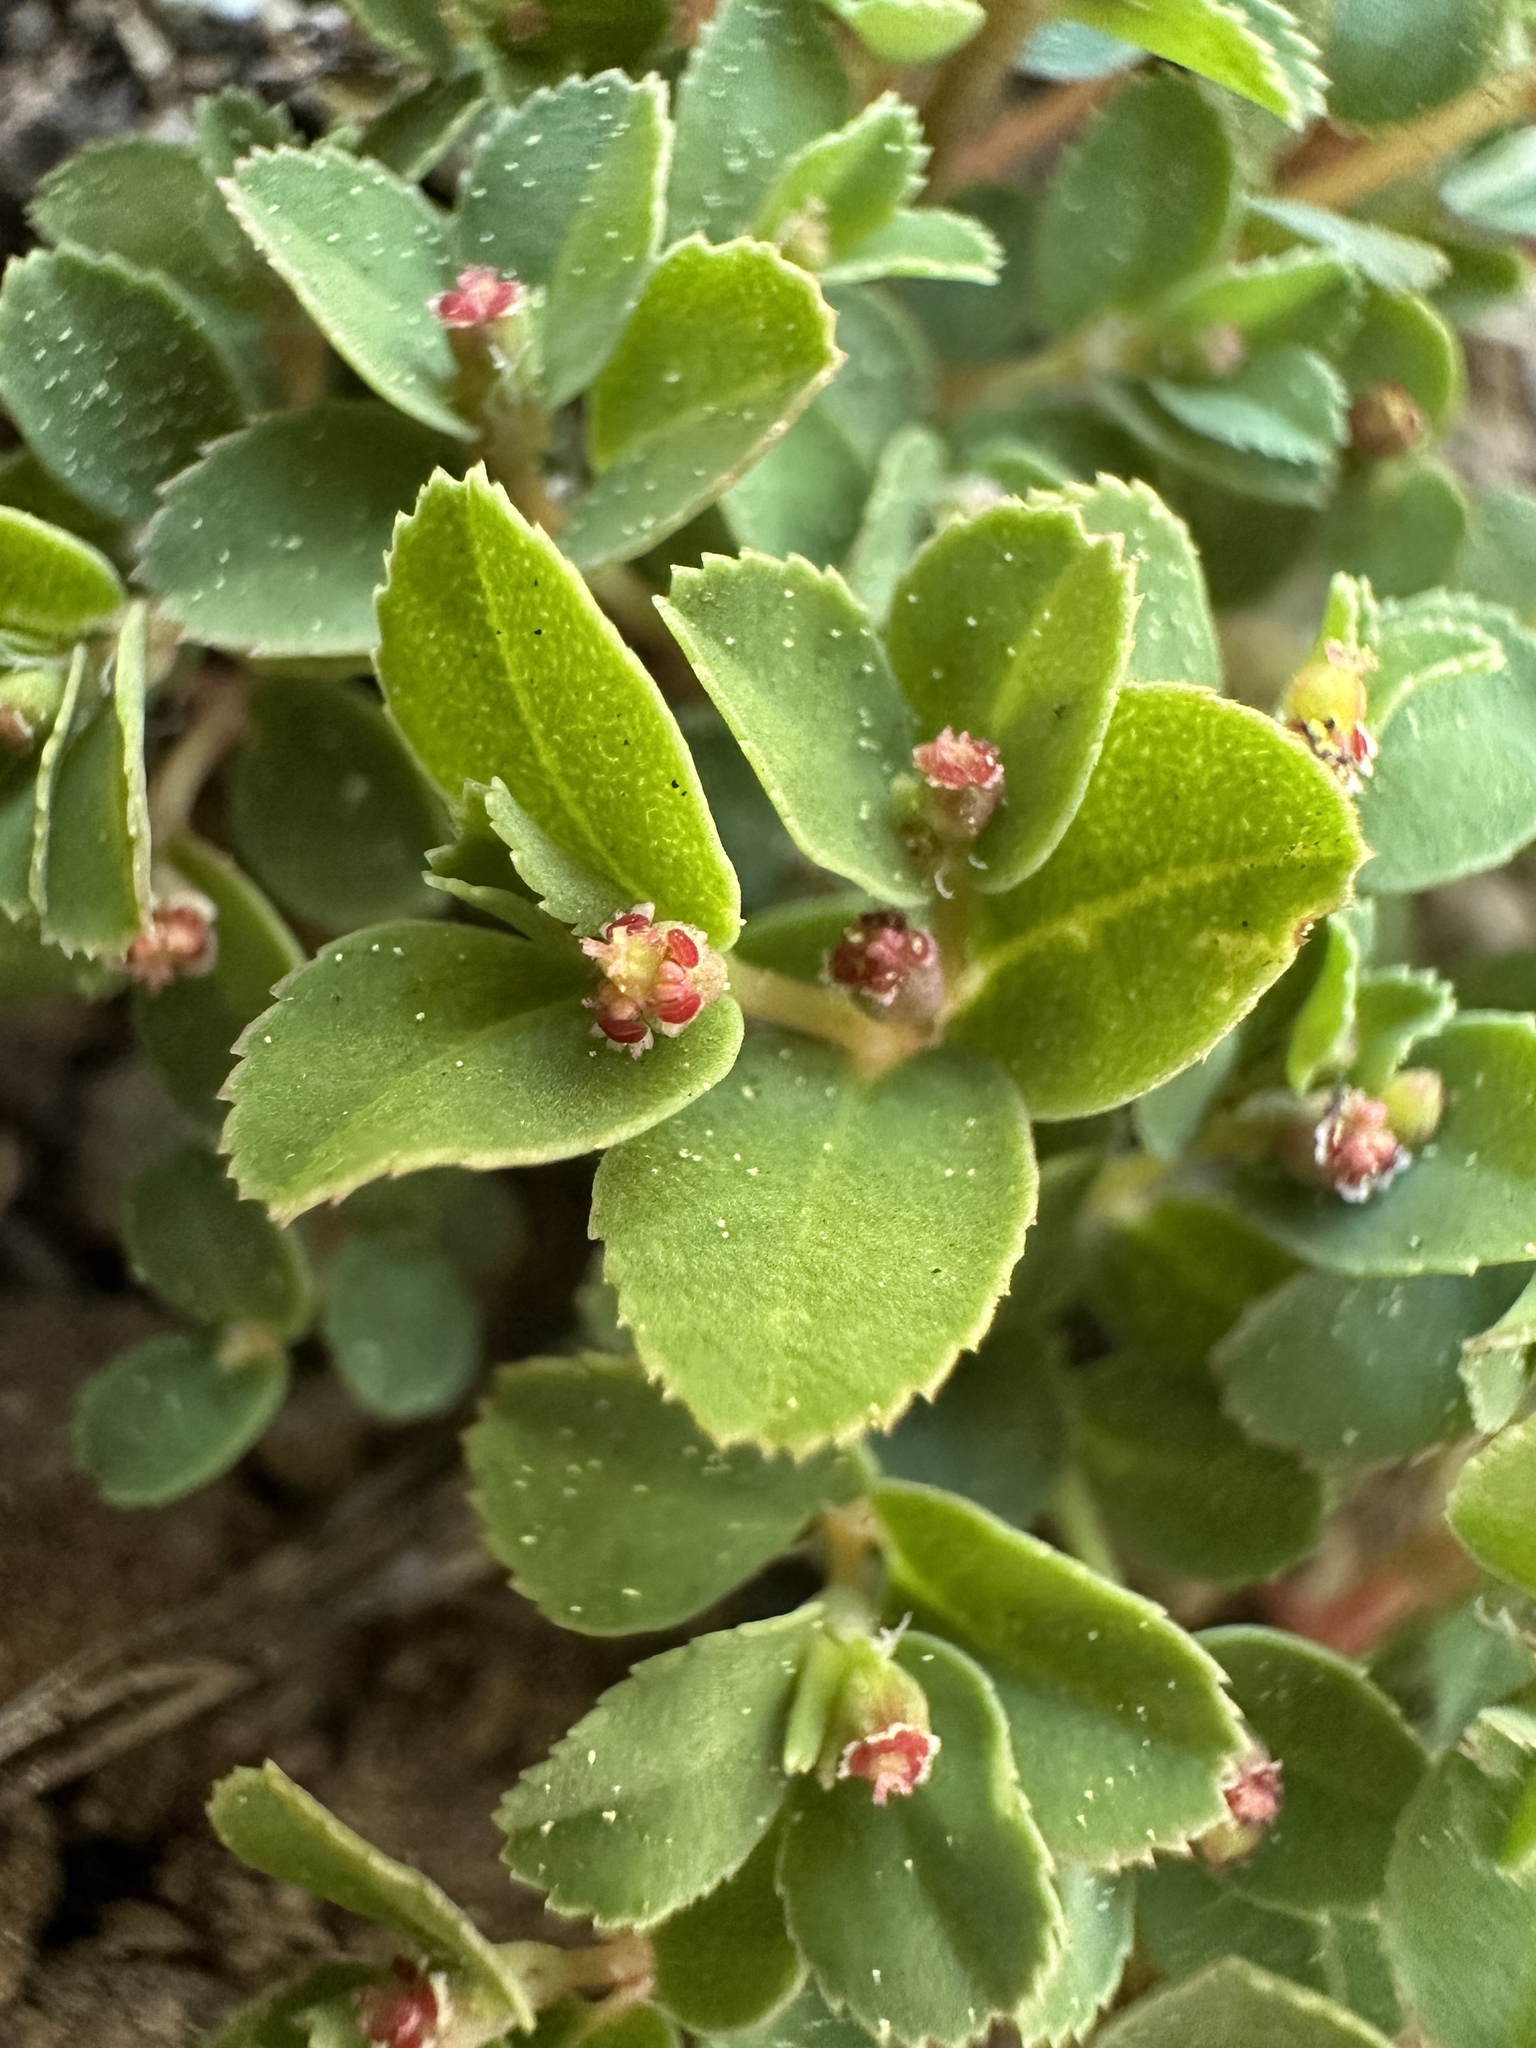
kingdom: Plantae
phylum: Tracheophyta
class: Magnoliopsida
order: Malpighiales
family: Euphorbiaceae
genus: Euphorbia
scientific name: Euphorbia serpillifolia
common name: Thyme-leaf spurge
